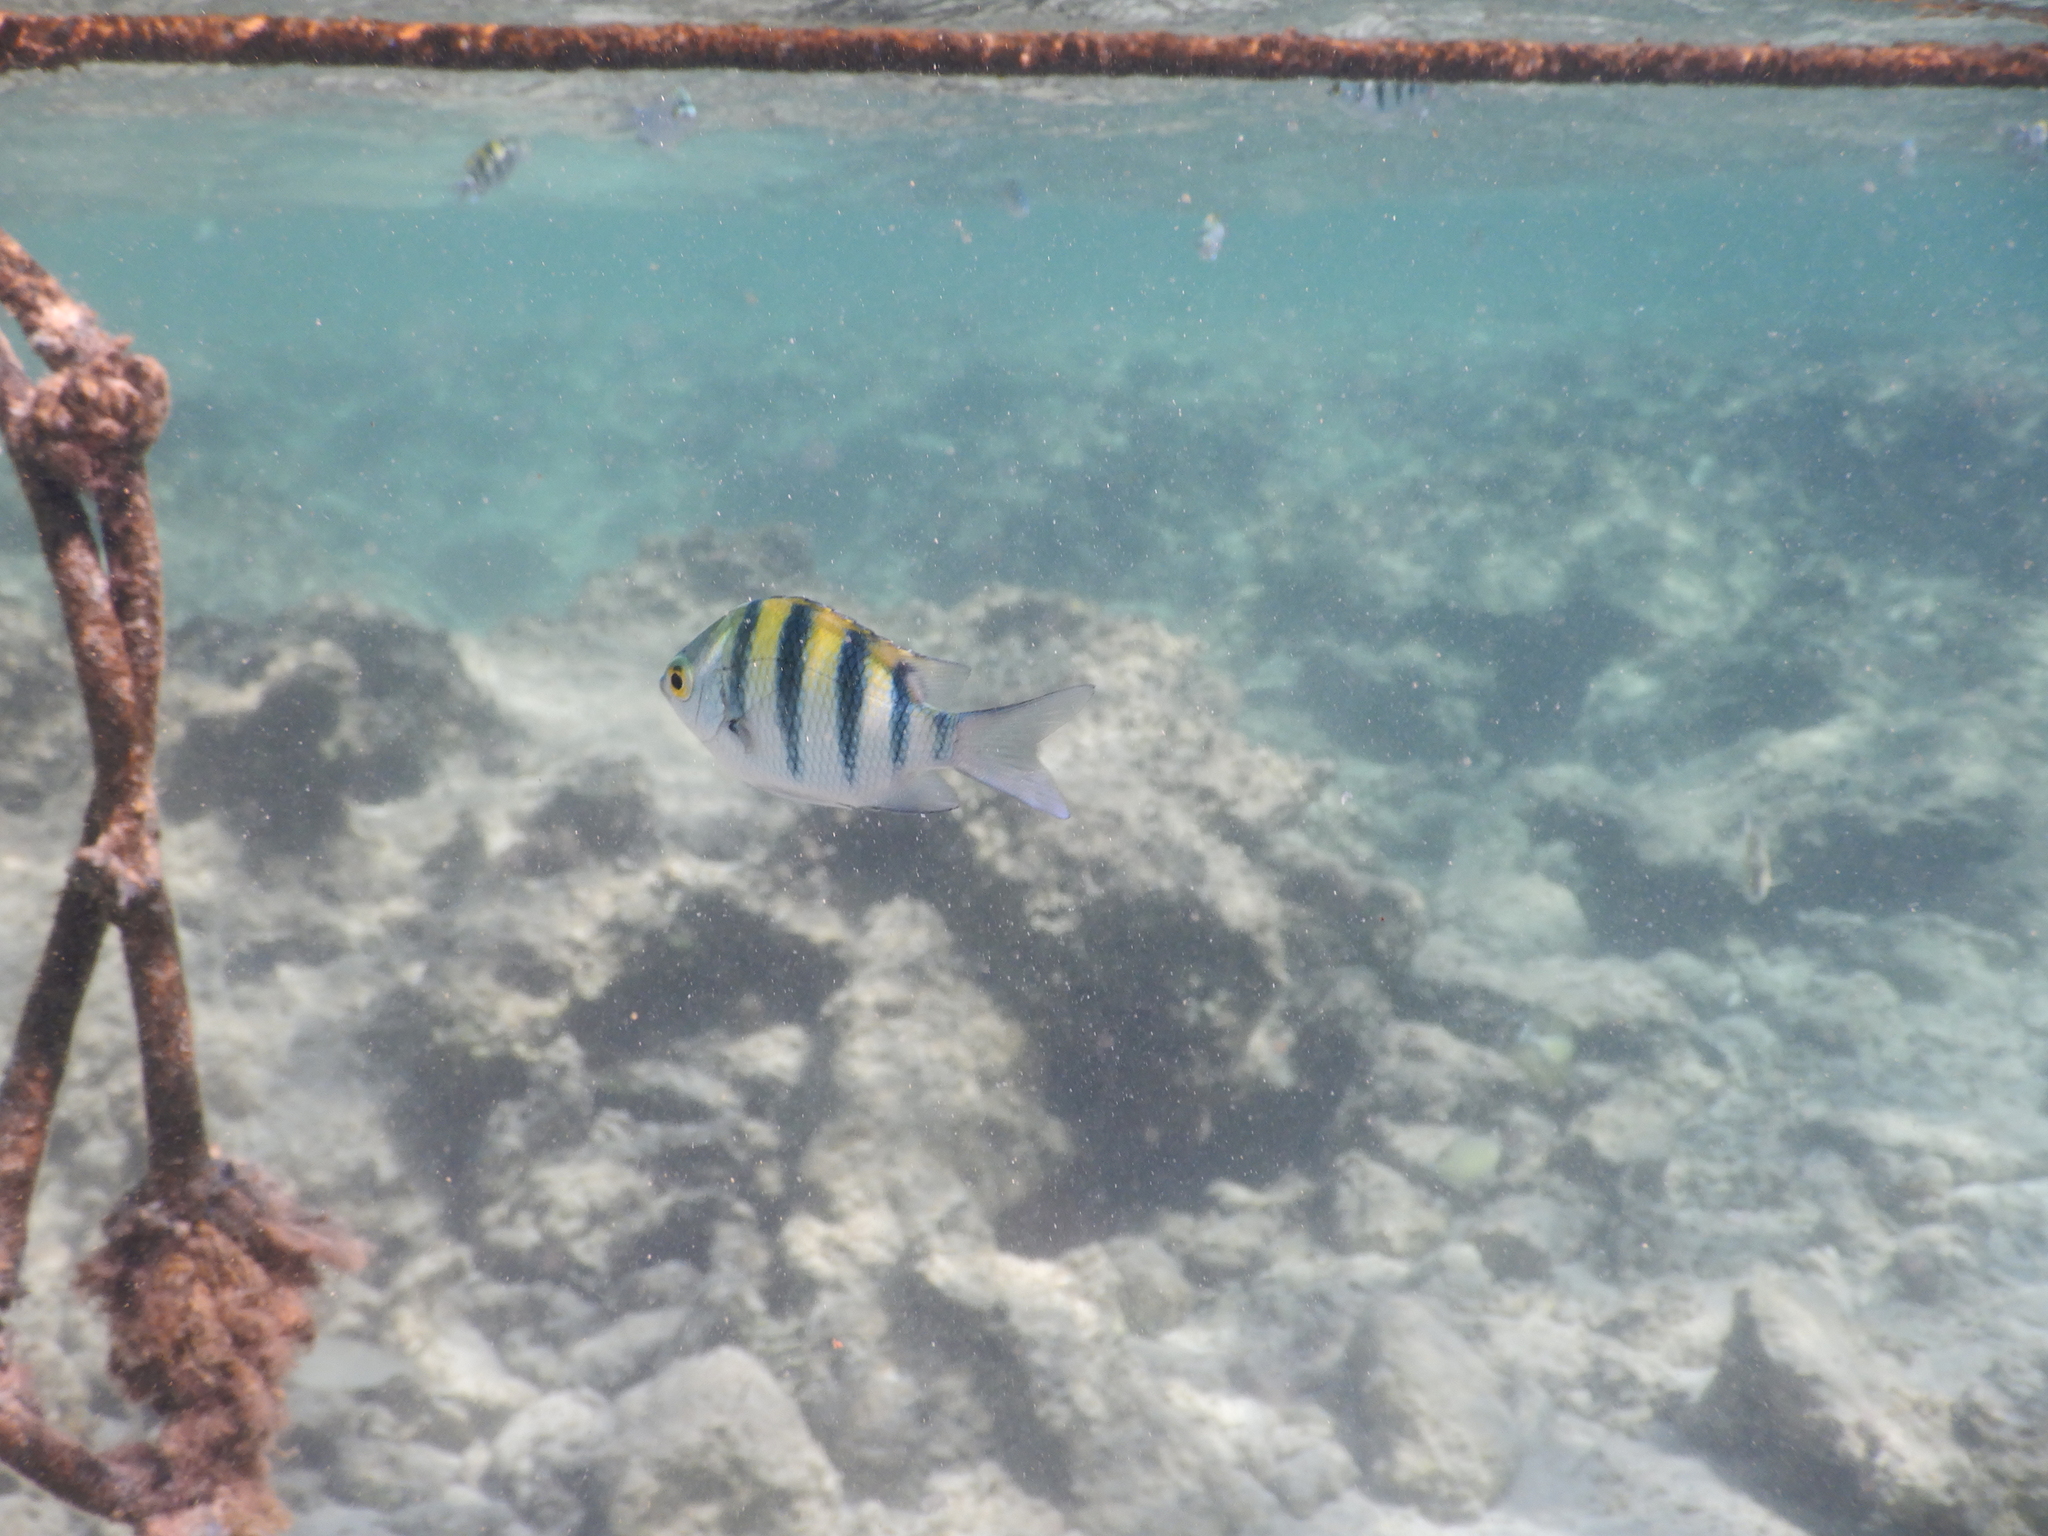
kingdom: Animalia
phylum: Chordata
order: Perciformes
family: Pomacentridae
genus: Abudefduf
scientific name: Abudefduf vaigiensis
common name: Indo-pacific sergeant
